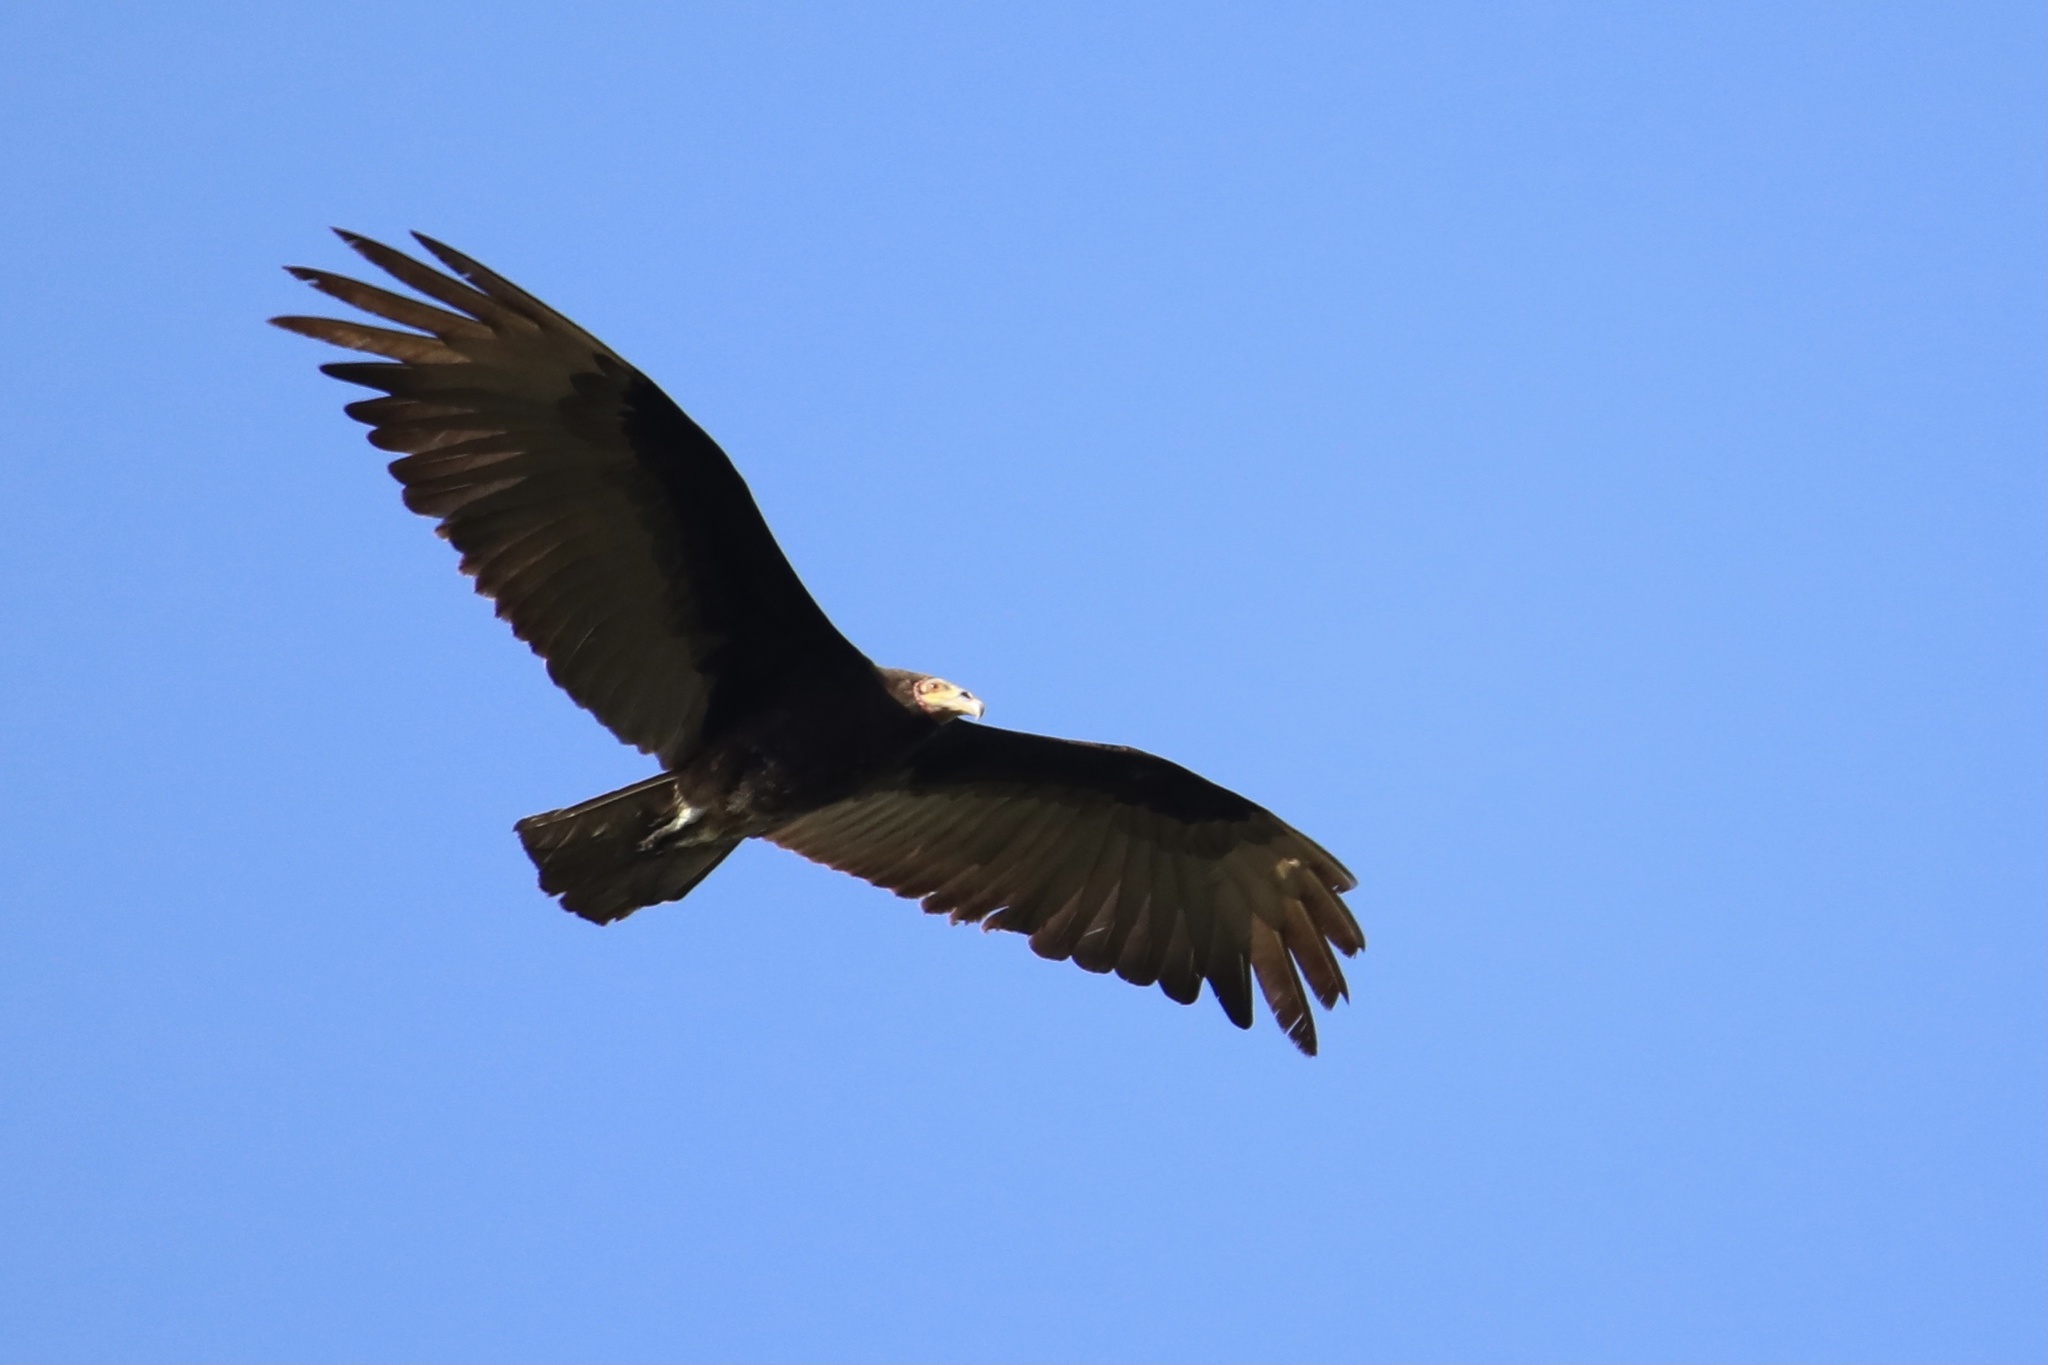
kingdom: Animalia
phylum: Chordata
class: Aves
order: Accipitriformes
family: Cathartidae
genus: Cathartes
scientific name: Cathartes burrovianus
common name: Lesser yellow-headed vulture
